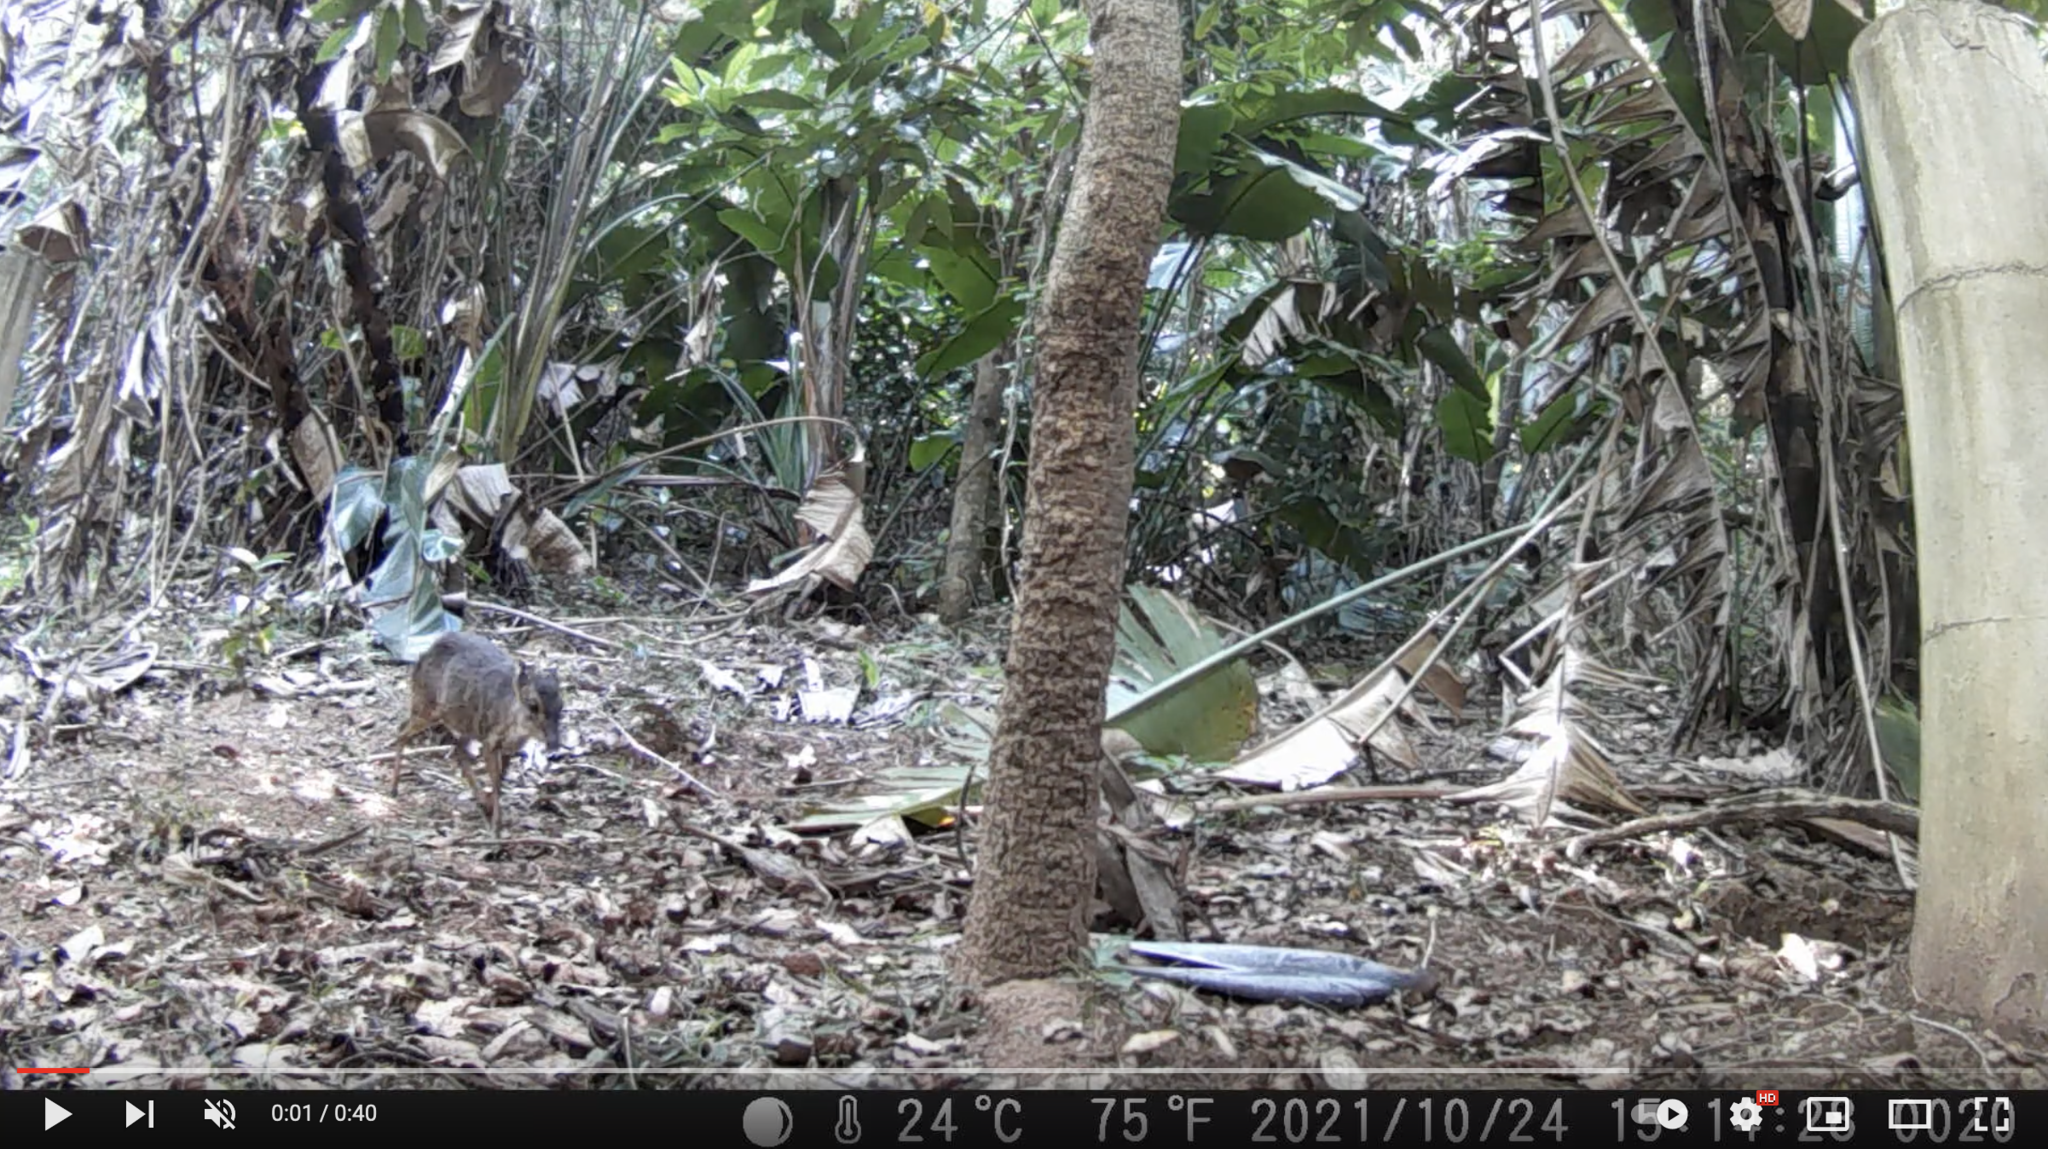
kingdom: Animalia
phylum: Chordata
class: Mammalia
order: Artiodactyla
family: Bovidae
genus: Philantomba
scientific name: Philantomba monticola
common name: Blue duiker
